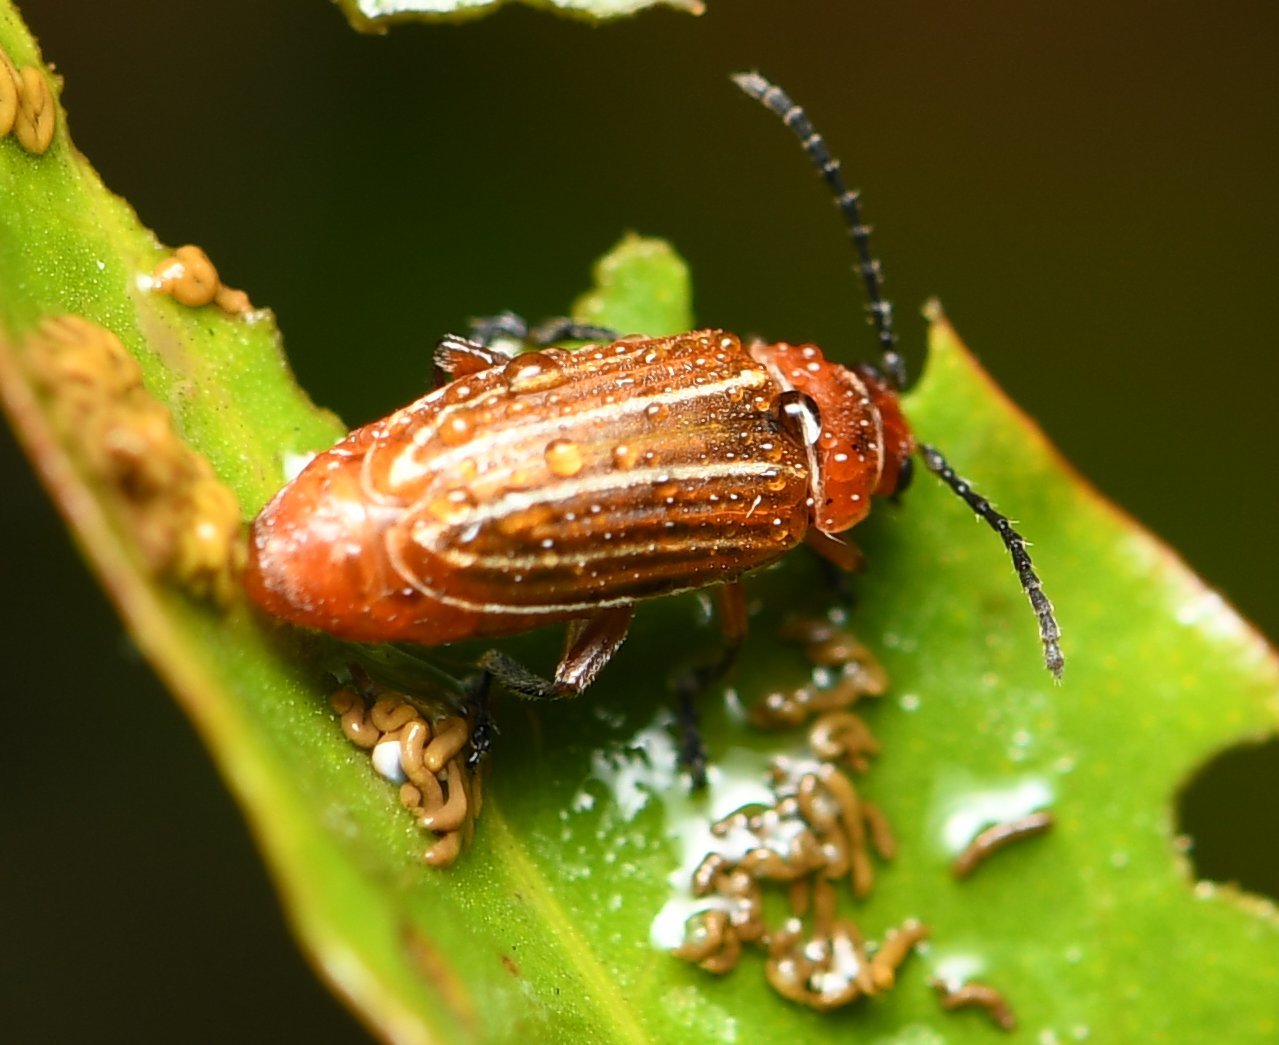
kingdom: Animalia
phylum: Arthropoda
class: Insecta
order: Coleoptera
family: Chrysomelidae
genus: Disonycha
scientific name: Disonycha conjugata
